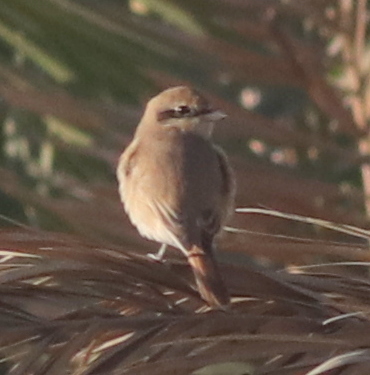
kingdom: Animalia
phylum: Chordata
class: Aves
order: Passeriformes
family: Laniidae
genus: Lanius
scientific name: Lanius isabellinus
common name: Isabelline shrike
